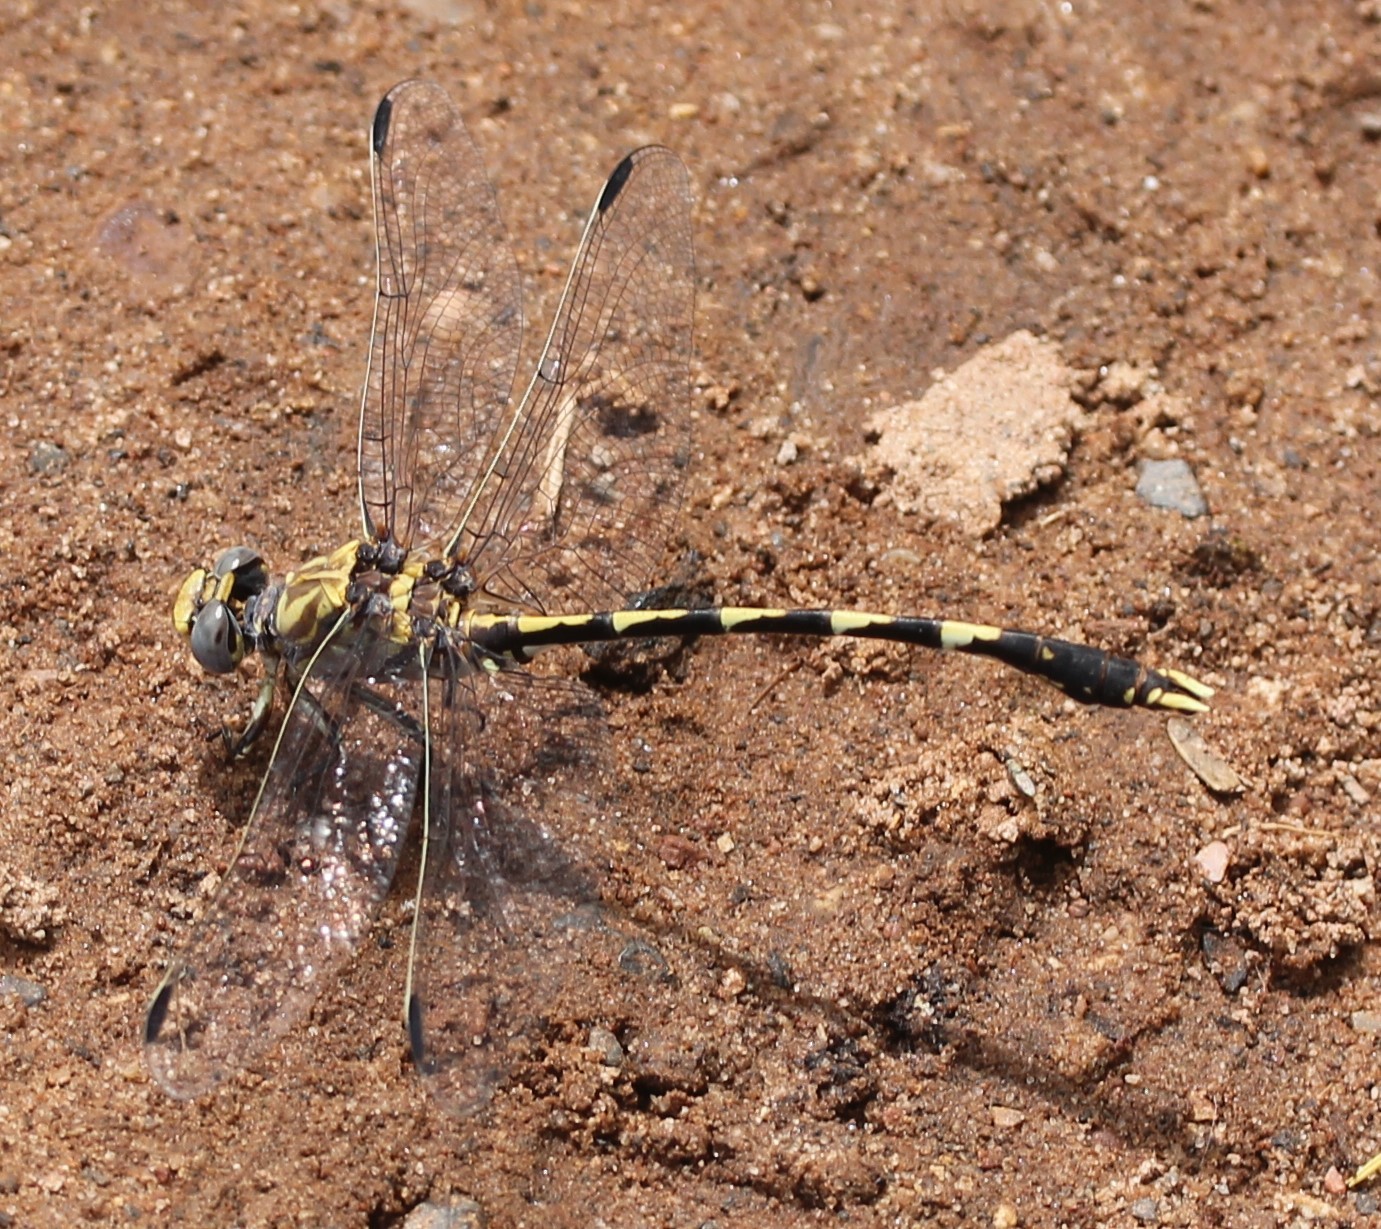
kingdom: Animalia
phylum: Arthropoda
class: Insecta
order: Odonata
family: Gomphidae
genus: Progomphus
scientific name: Progomphus borealis
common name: Gray sanddragon
